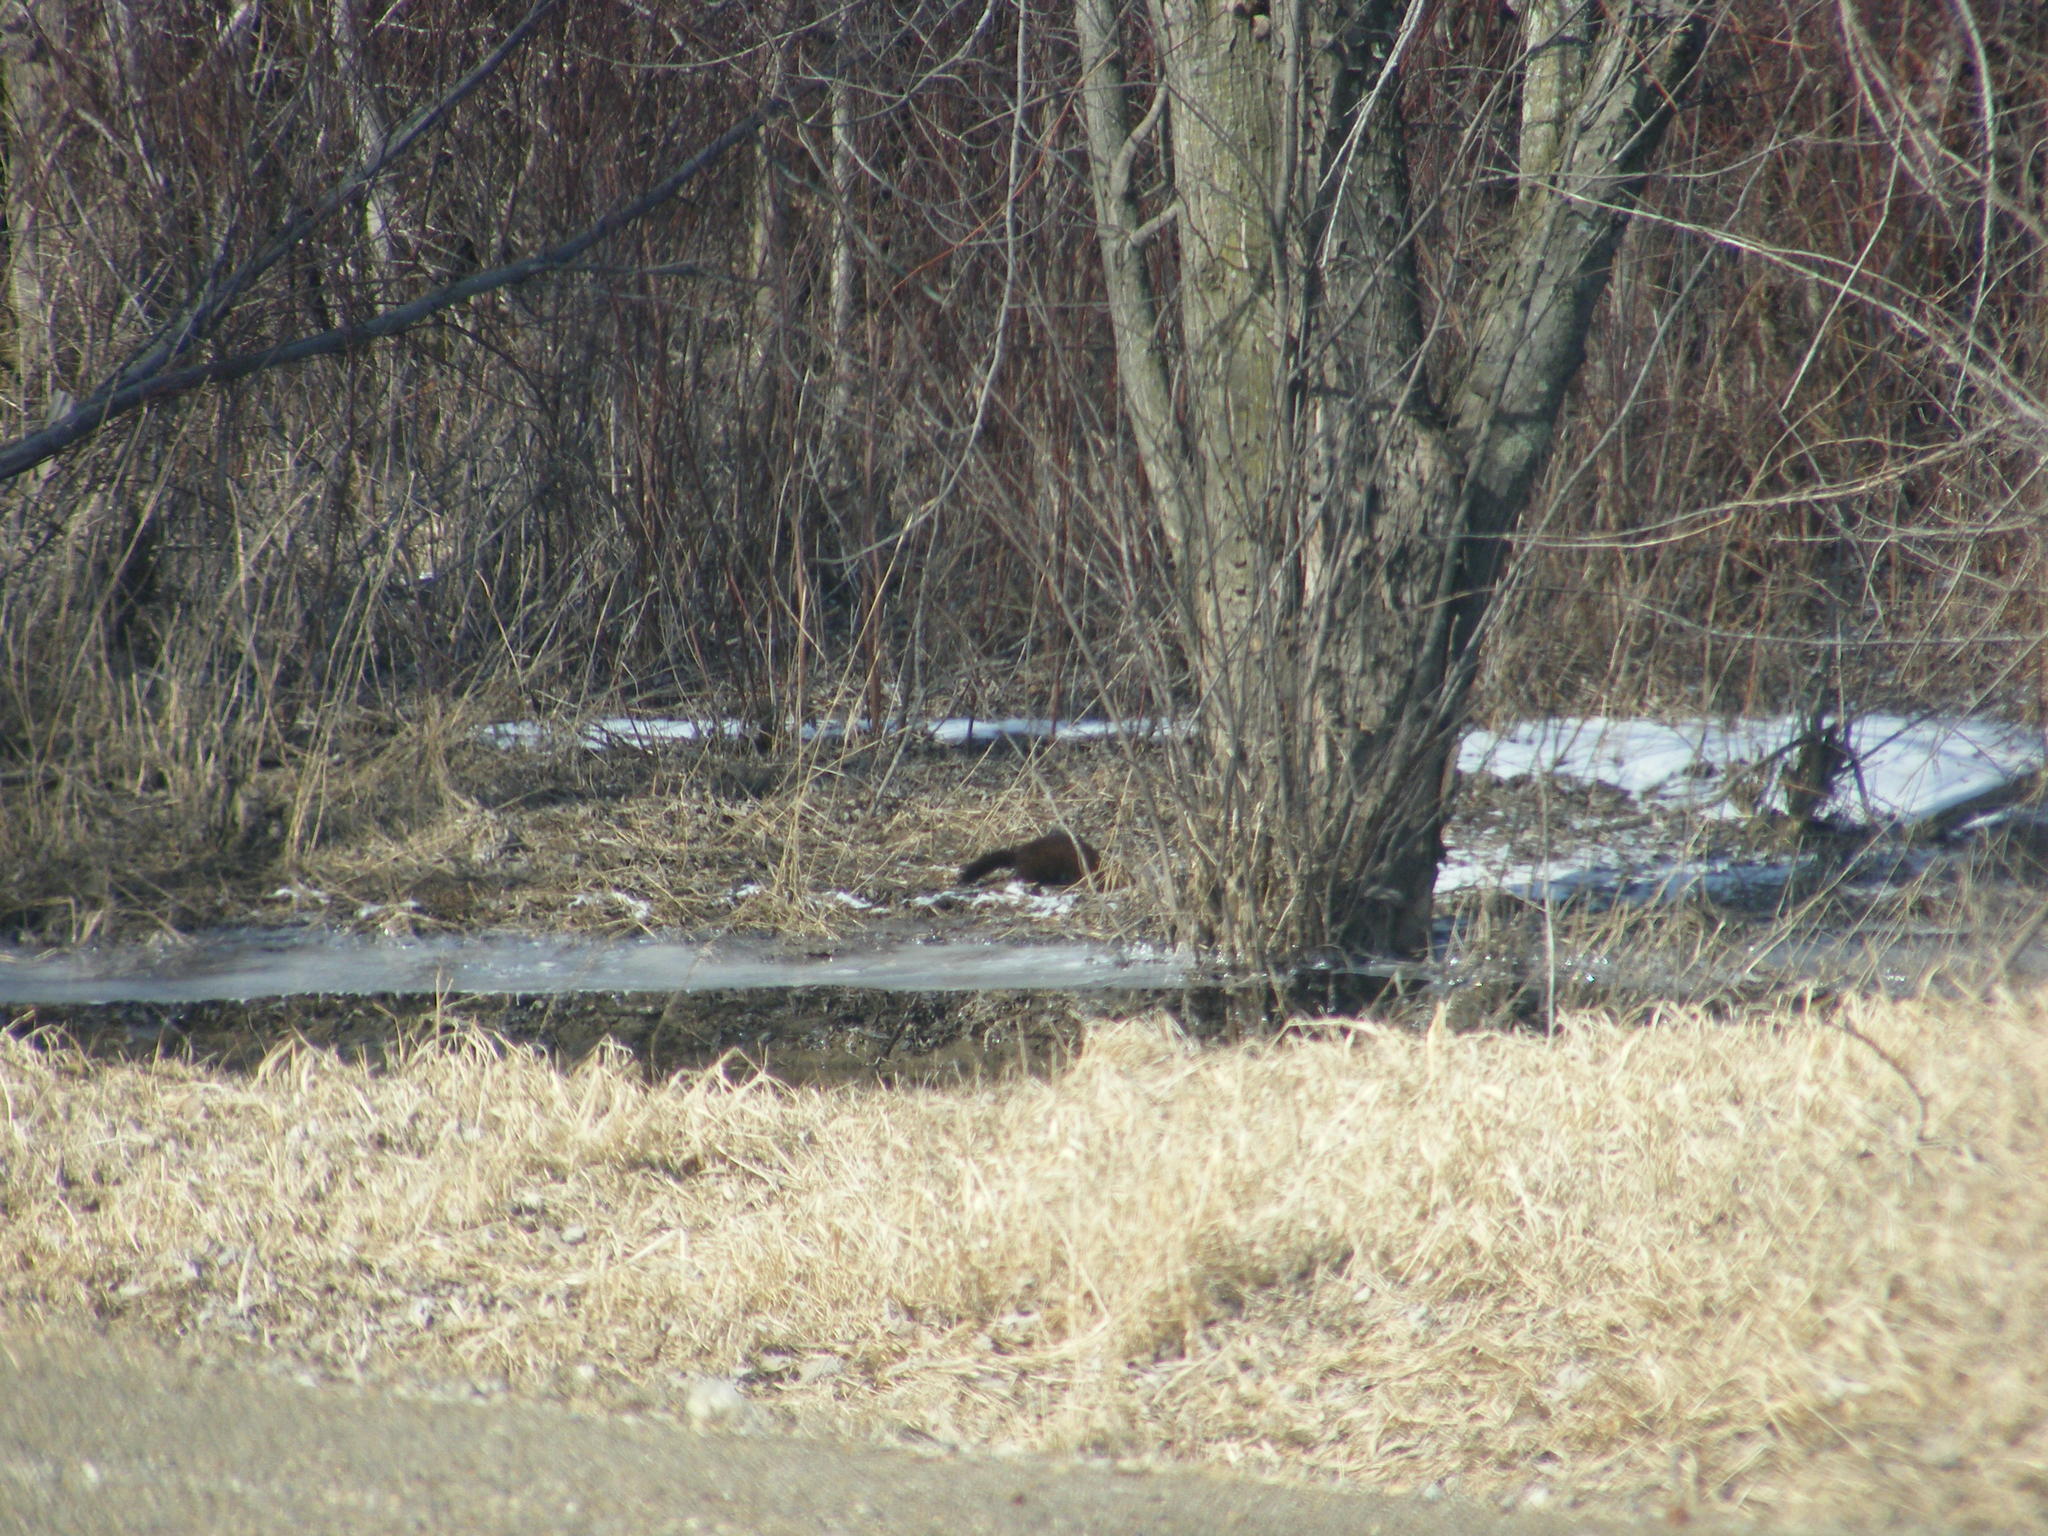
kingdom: Animalia
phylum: Chordata
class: Mammalia
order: Carnivora
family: Mustelidae
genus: Mustela
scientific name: Mustela
